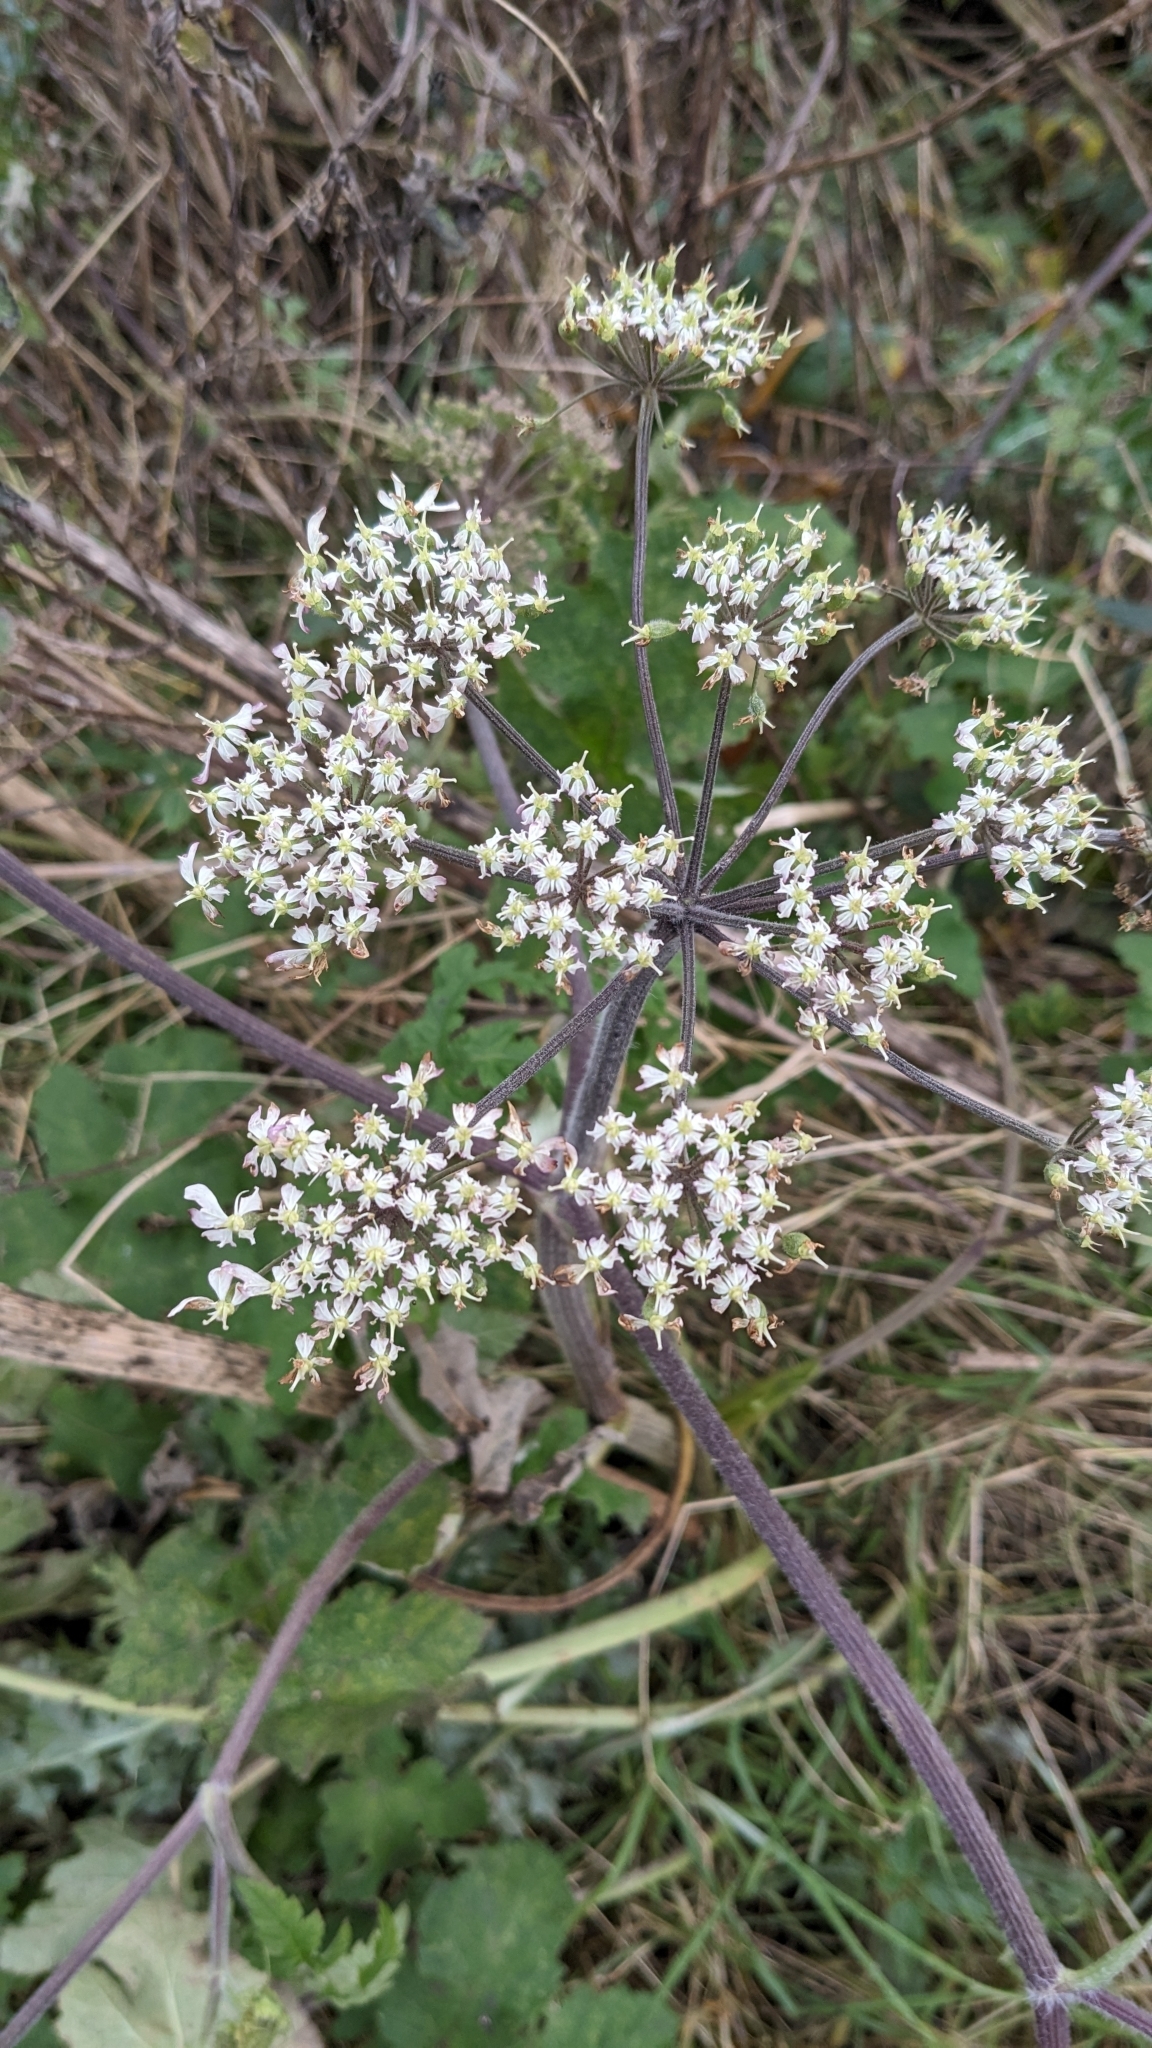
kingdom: Plantae
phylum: Tracheophyta
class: Magnoliopsida
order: Apiales
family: Apiaceae
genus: Heracleum
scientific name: Heracleum sphondylium
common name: Hogweed
